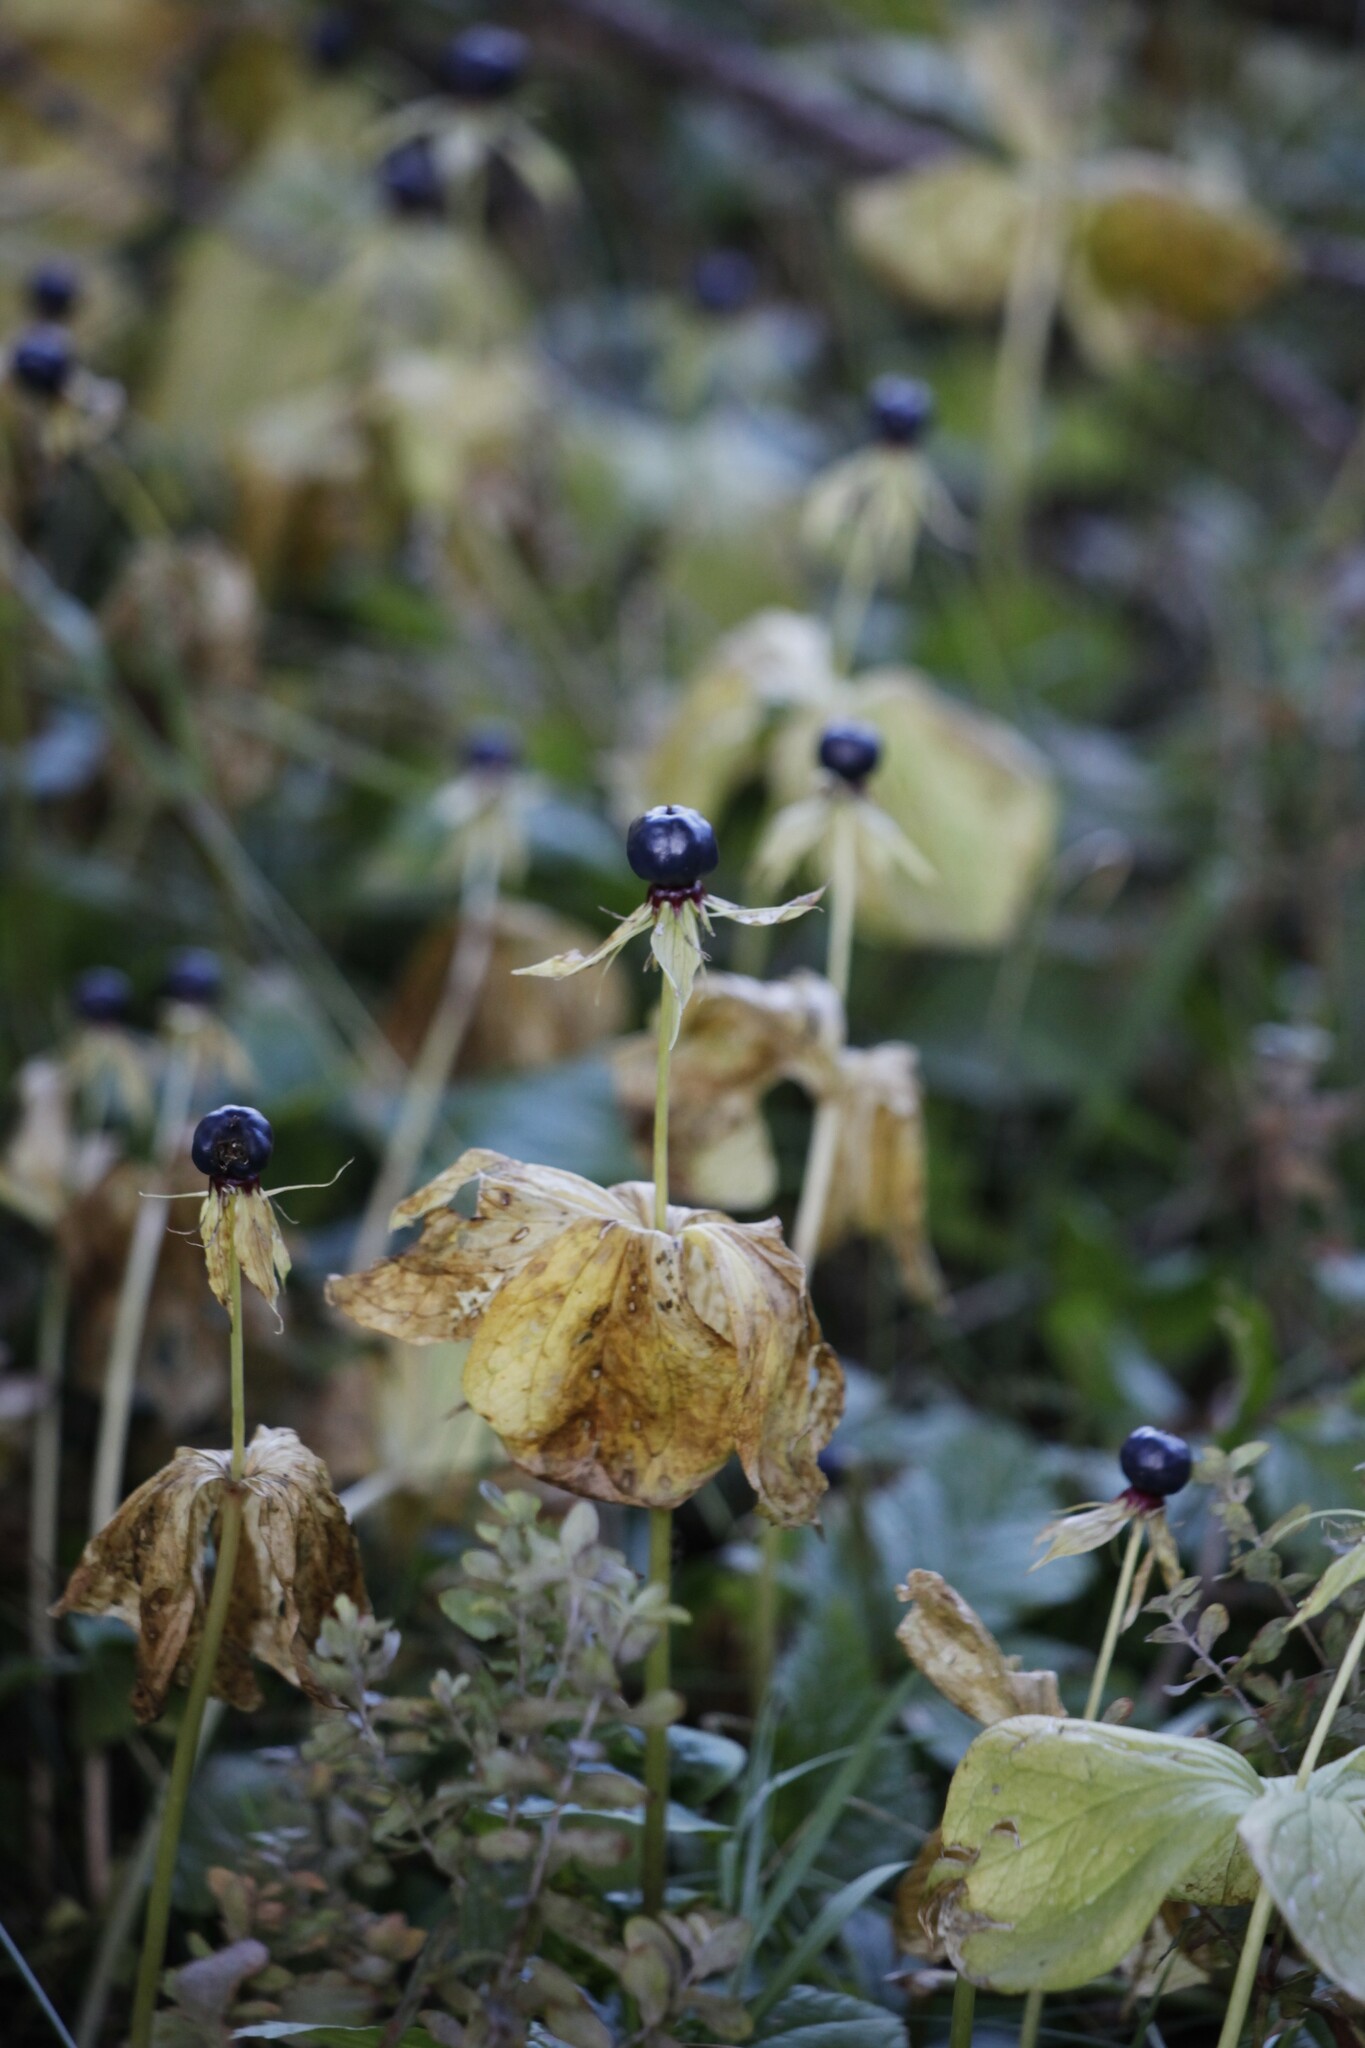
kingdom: Plantae
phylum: Tracheophyta
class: Liliopsida
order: Liliales
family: Melanthiaceae
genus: Paris
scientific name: Paris quadrifolia
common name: Herb-paris
